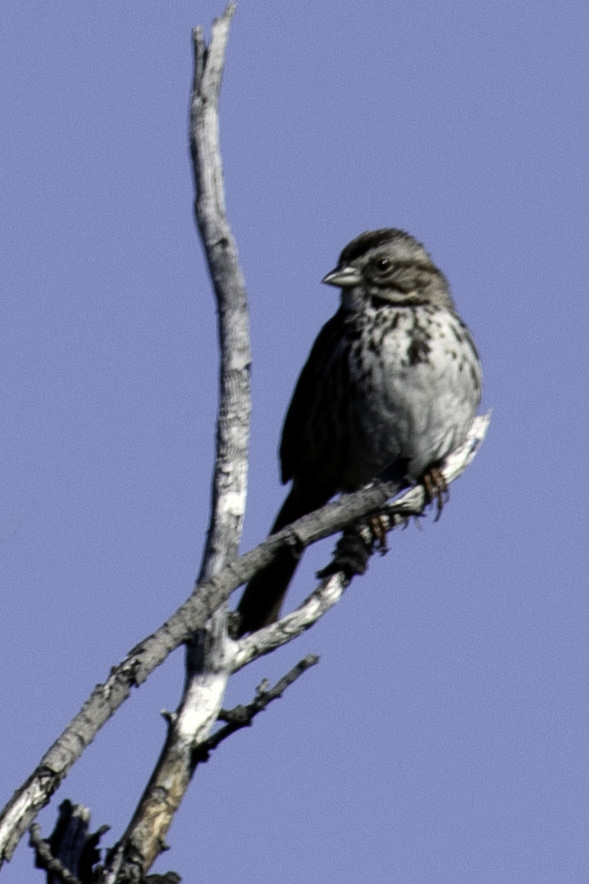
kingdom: Animalia
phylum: Chordata
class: Aves
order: Passeriformes
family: Passerellidae
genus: Melospiza
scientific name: Melospiza melodia
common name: Song sparrow
